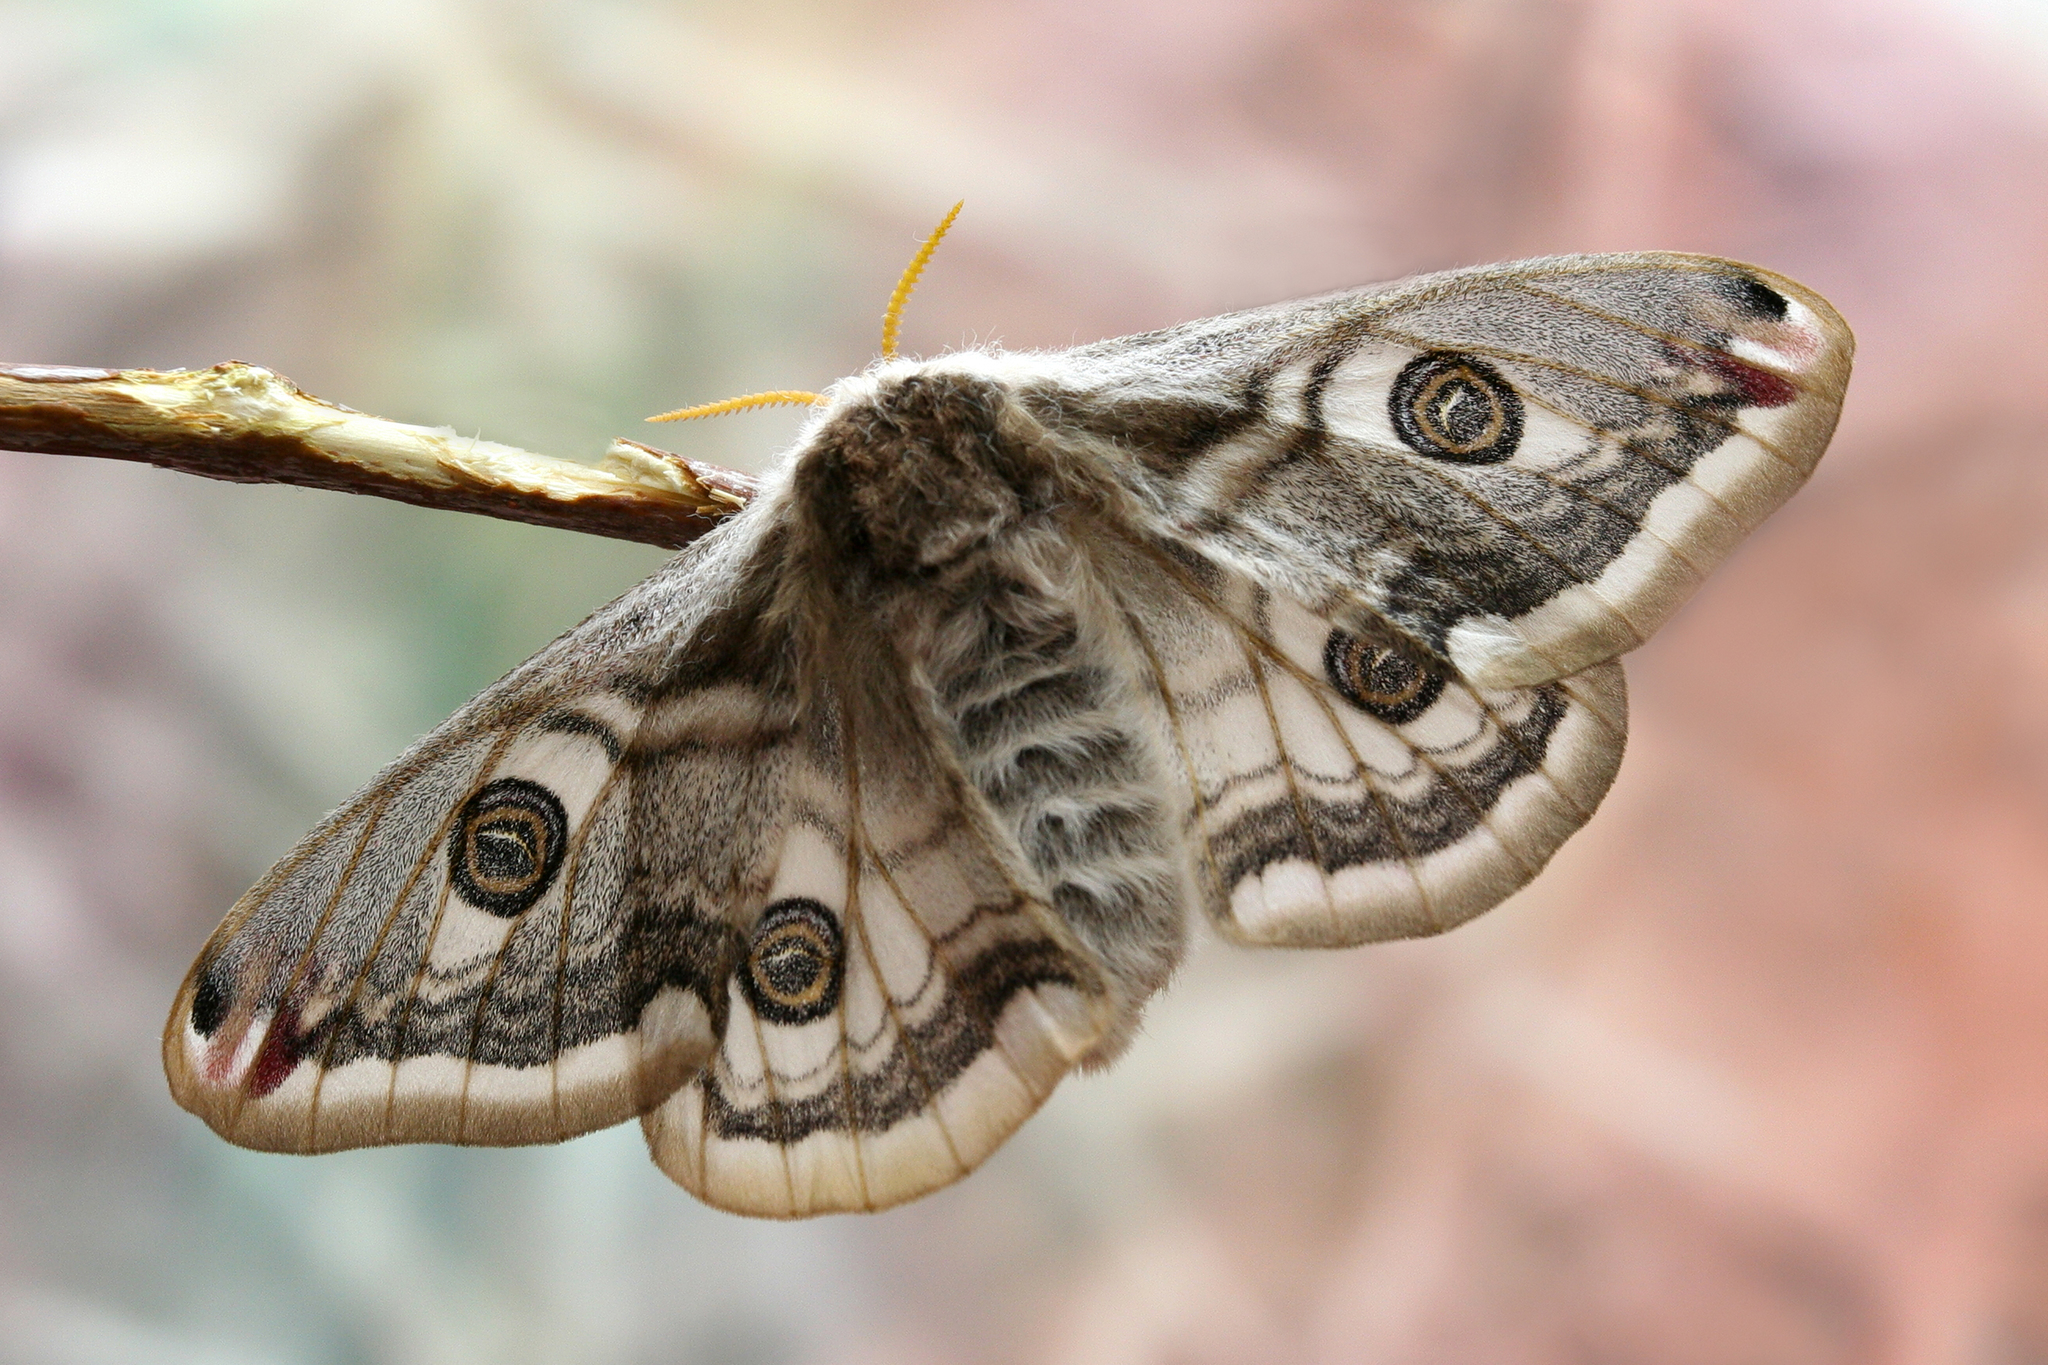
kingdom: Animalia
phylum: Arthropoda
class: Insecta
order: Lepidoptera
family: Saturniidae
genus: Saturnia
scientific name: Saturnia pavonia
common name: Emperor moth
